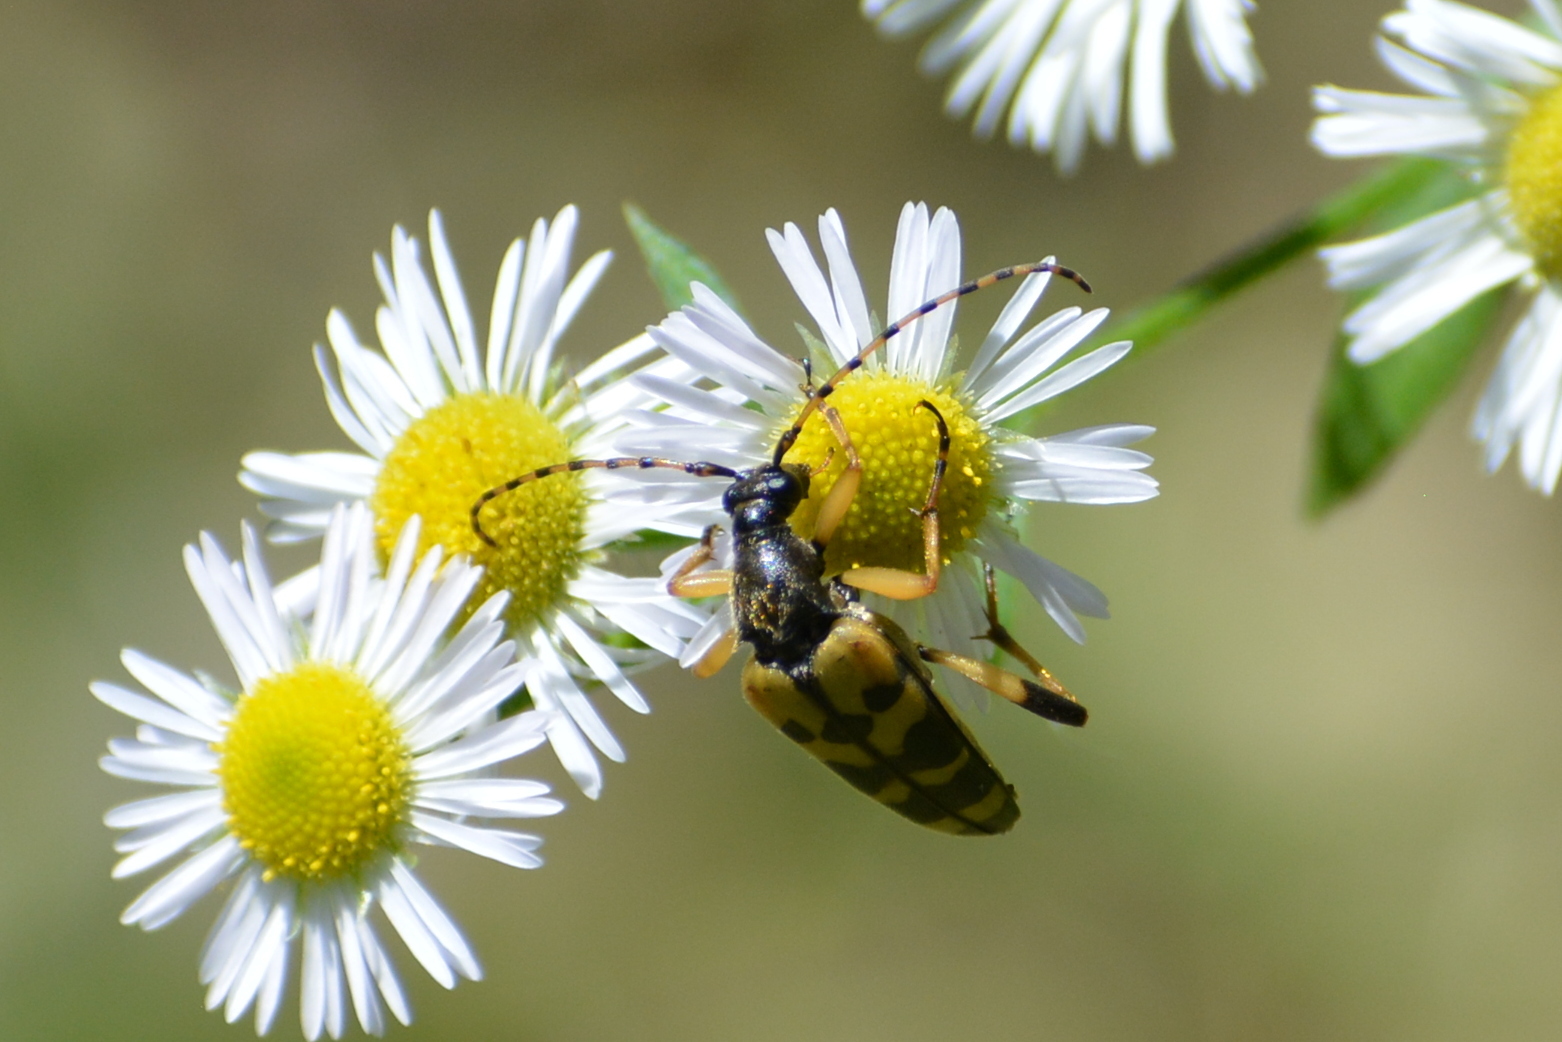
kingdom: Animalia
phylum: Arthropoda
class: Insecta
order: Coleoptera
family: Cerambycidae
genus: Rutpela
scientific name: Rutpela maculata
